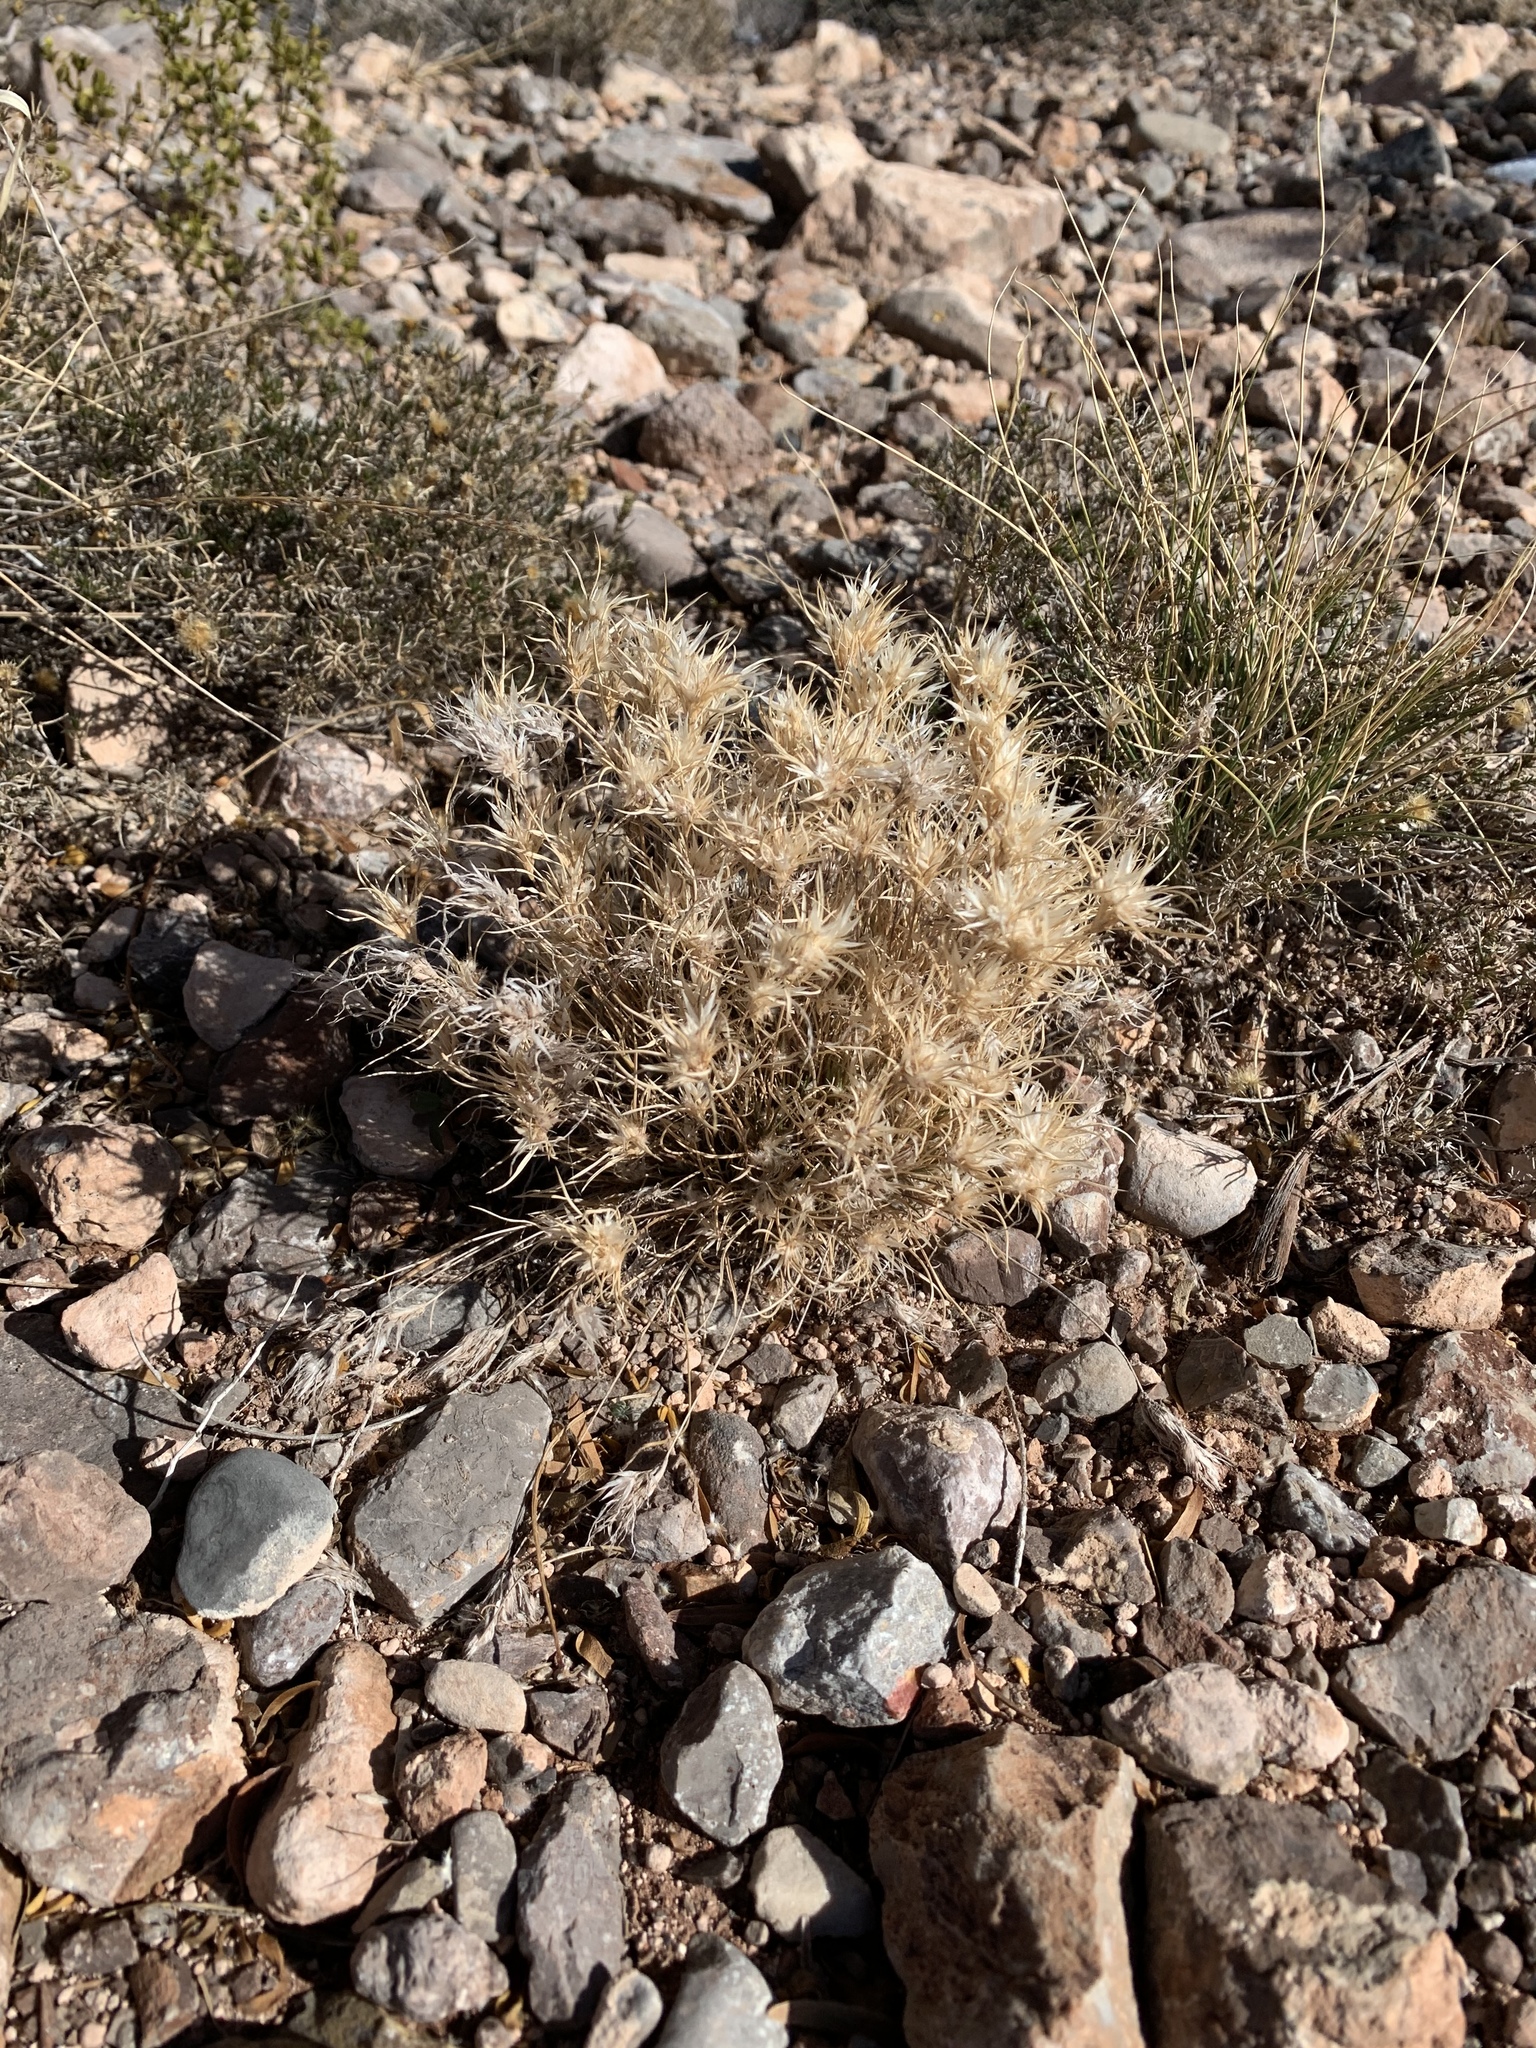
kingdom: Plantae
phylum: Tracheophyta
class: Liliopsida
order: Poales
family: Poaceae
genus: Dasyochloa
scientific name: Dasyochloa pulchella
